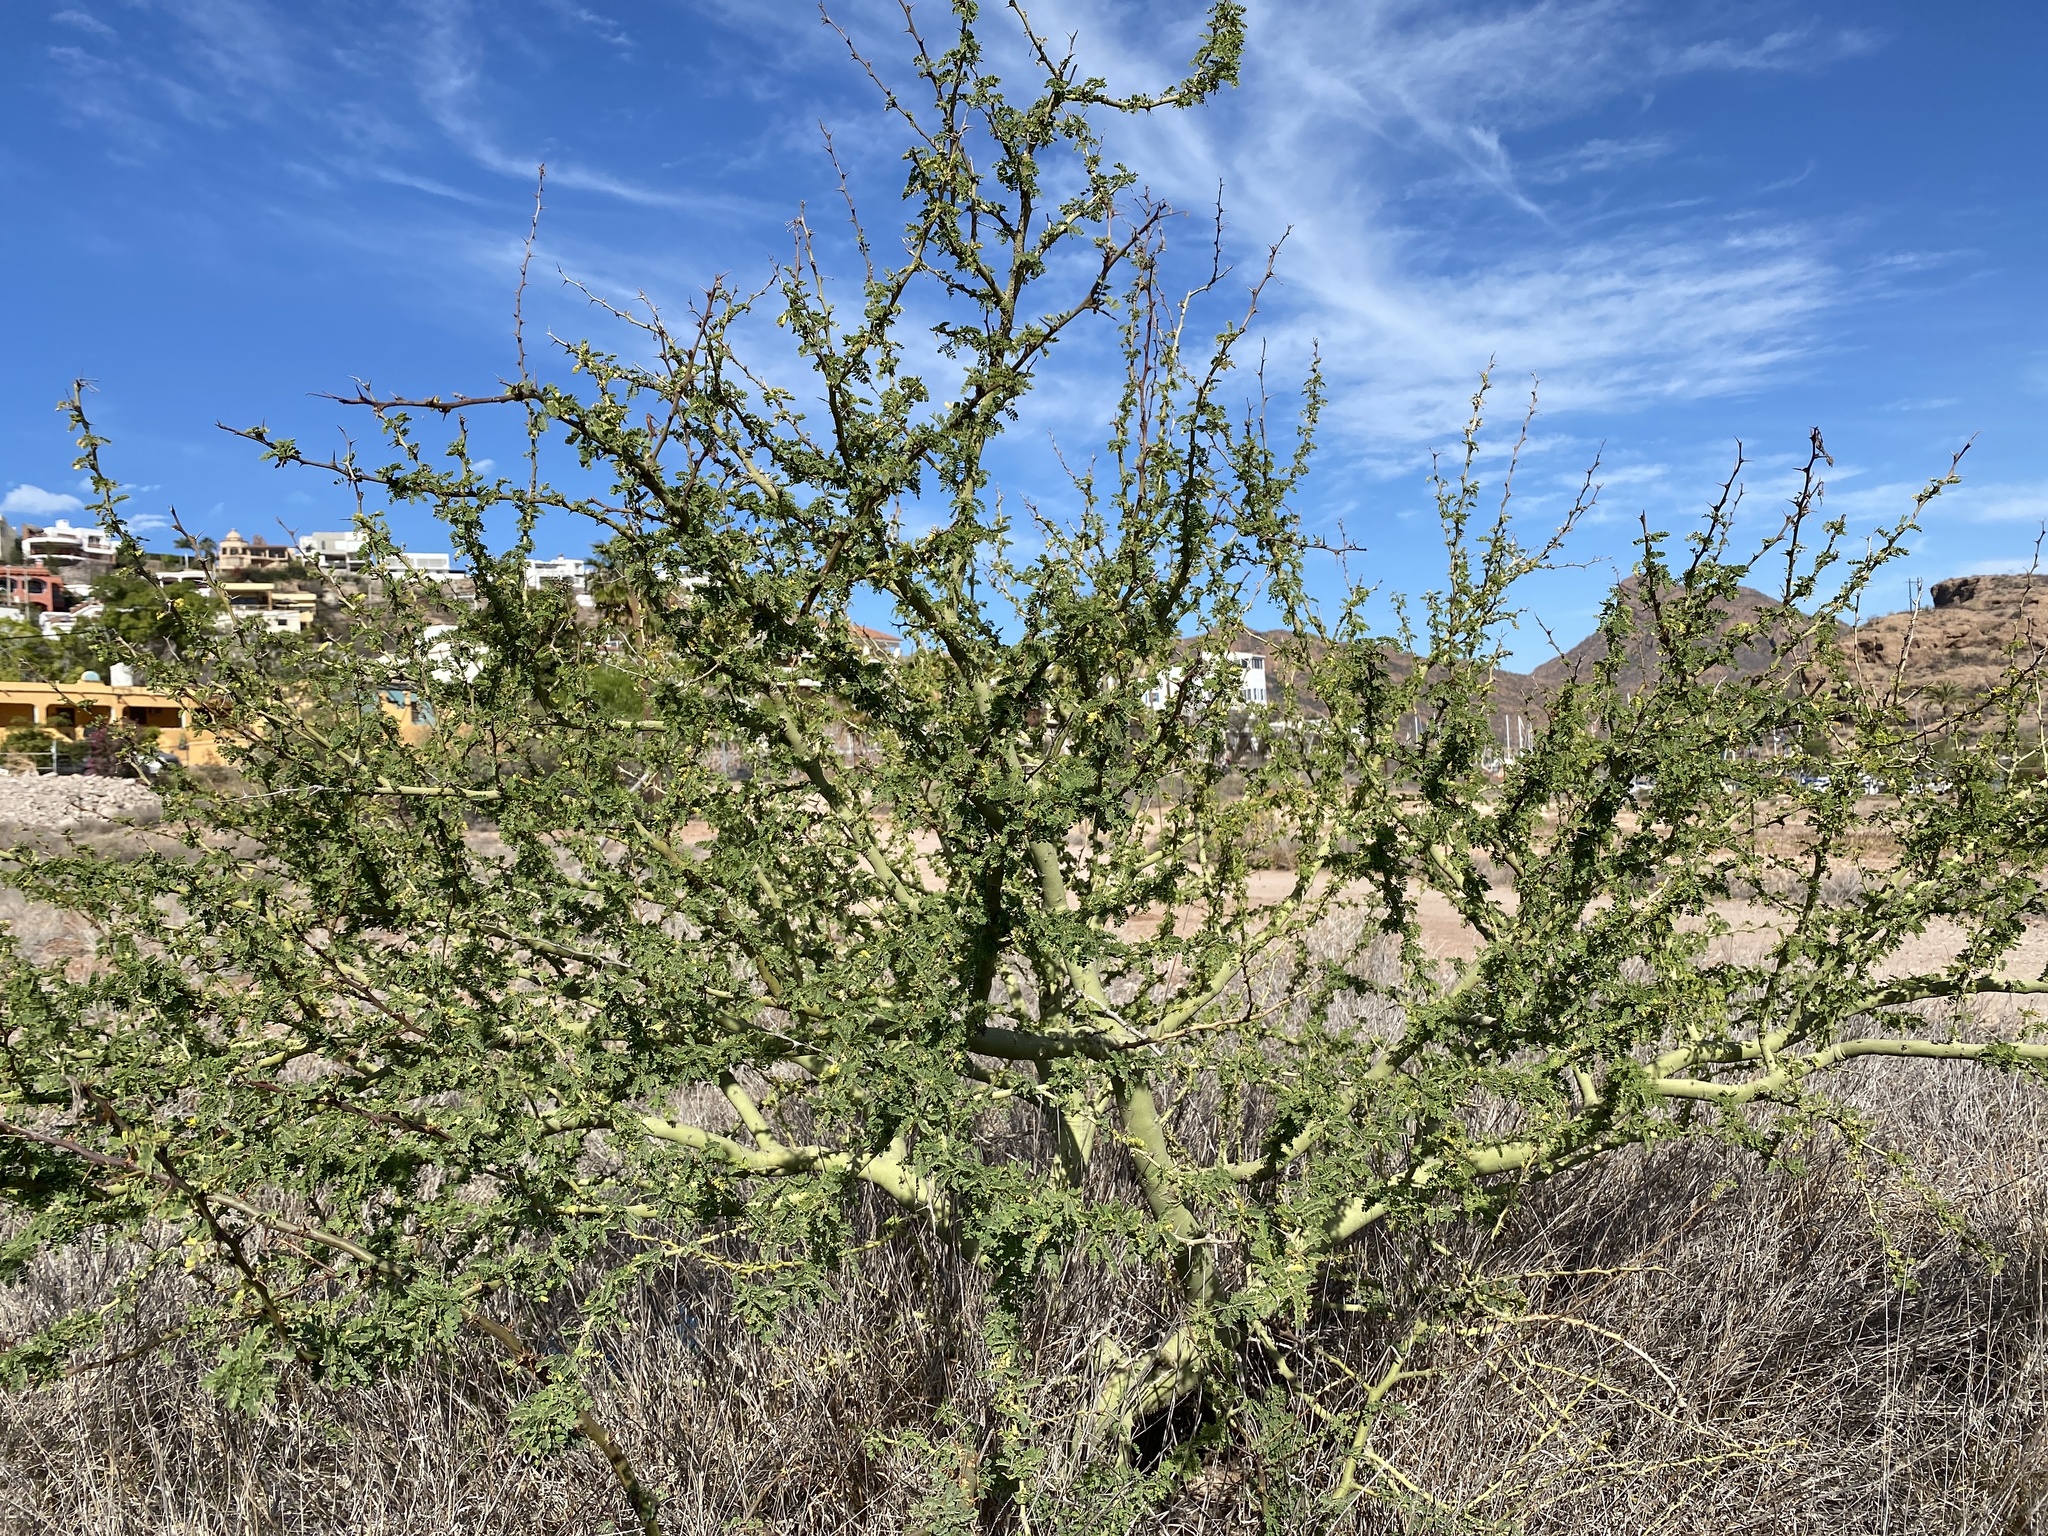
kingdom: Plantae
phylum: Tracheophyta
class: Magnoliopsida
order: Fabales
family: Fabaceae
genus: Parkinsonia
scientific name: Parkinsonia praecox
